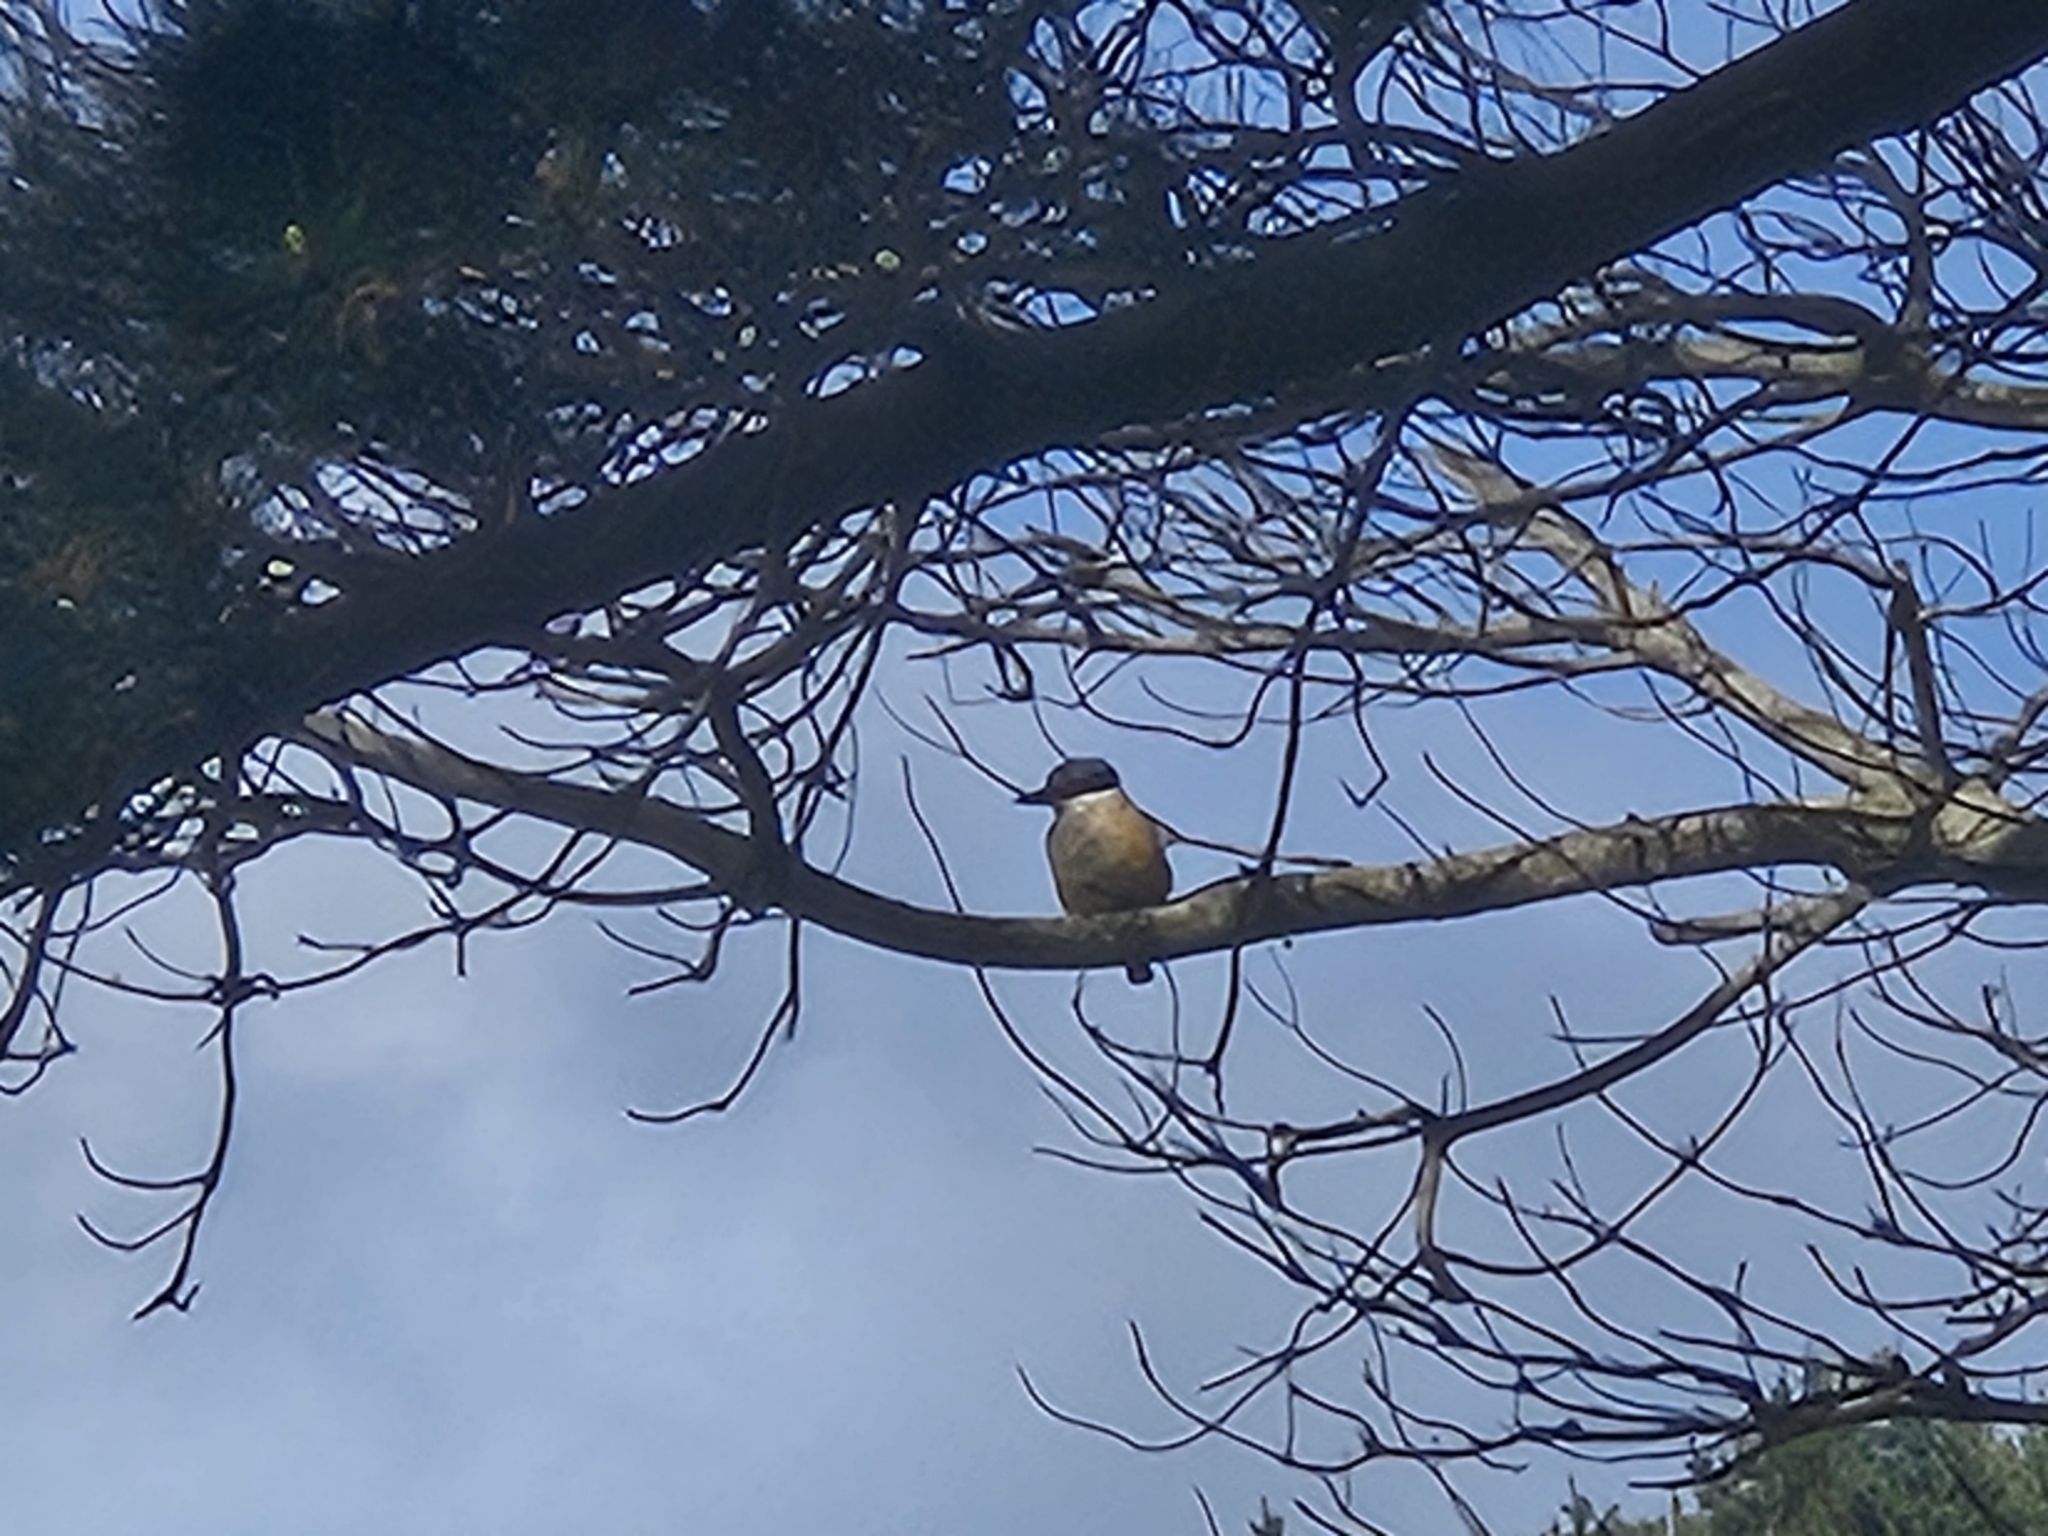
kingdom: Animalia
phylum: Chordata
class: Aves
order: Coraciiformes
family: Alcedinidae
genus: Todiramphus
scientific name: Todiramphus sanctus
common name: Sacred kingfisher
